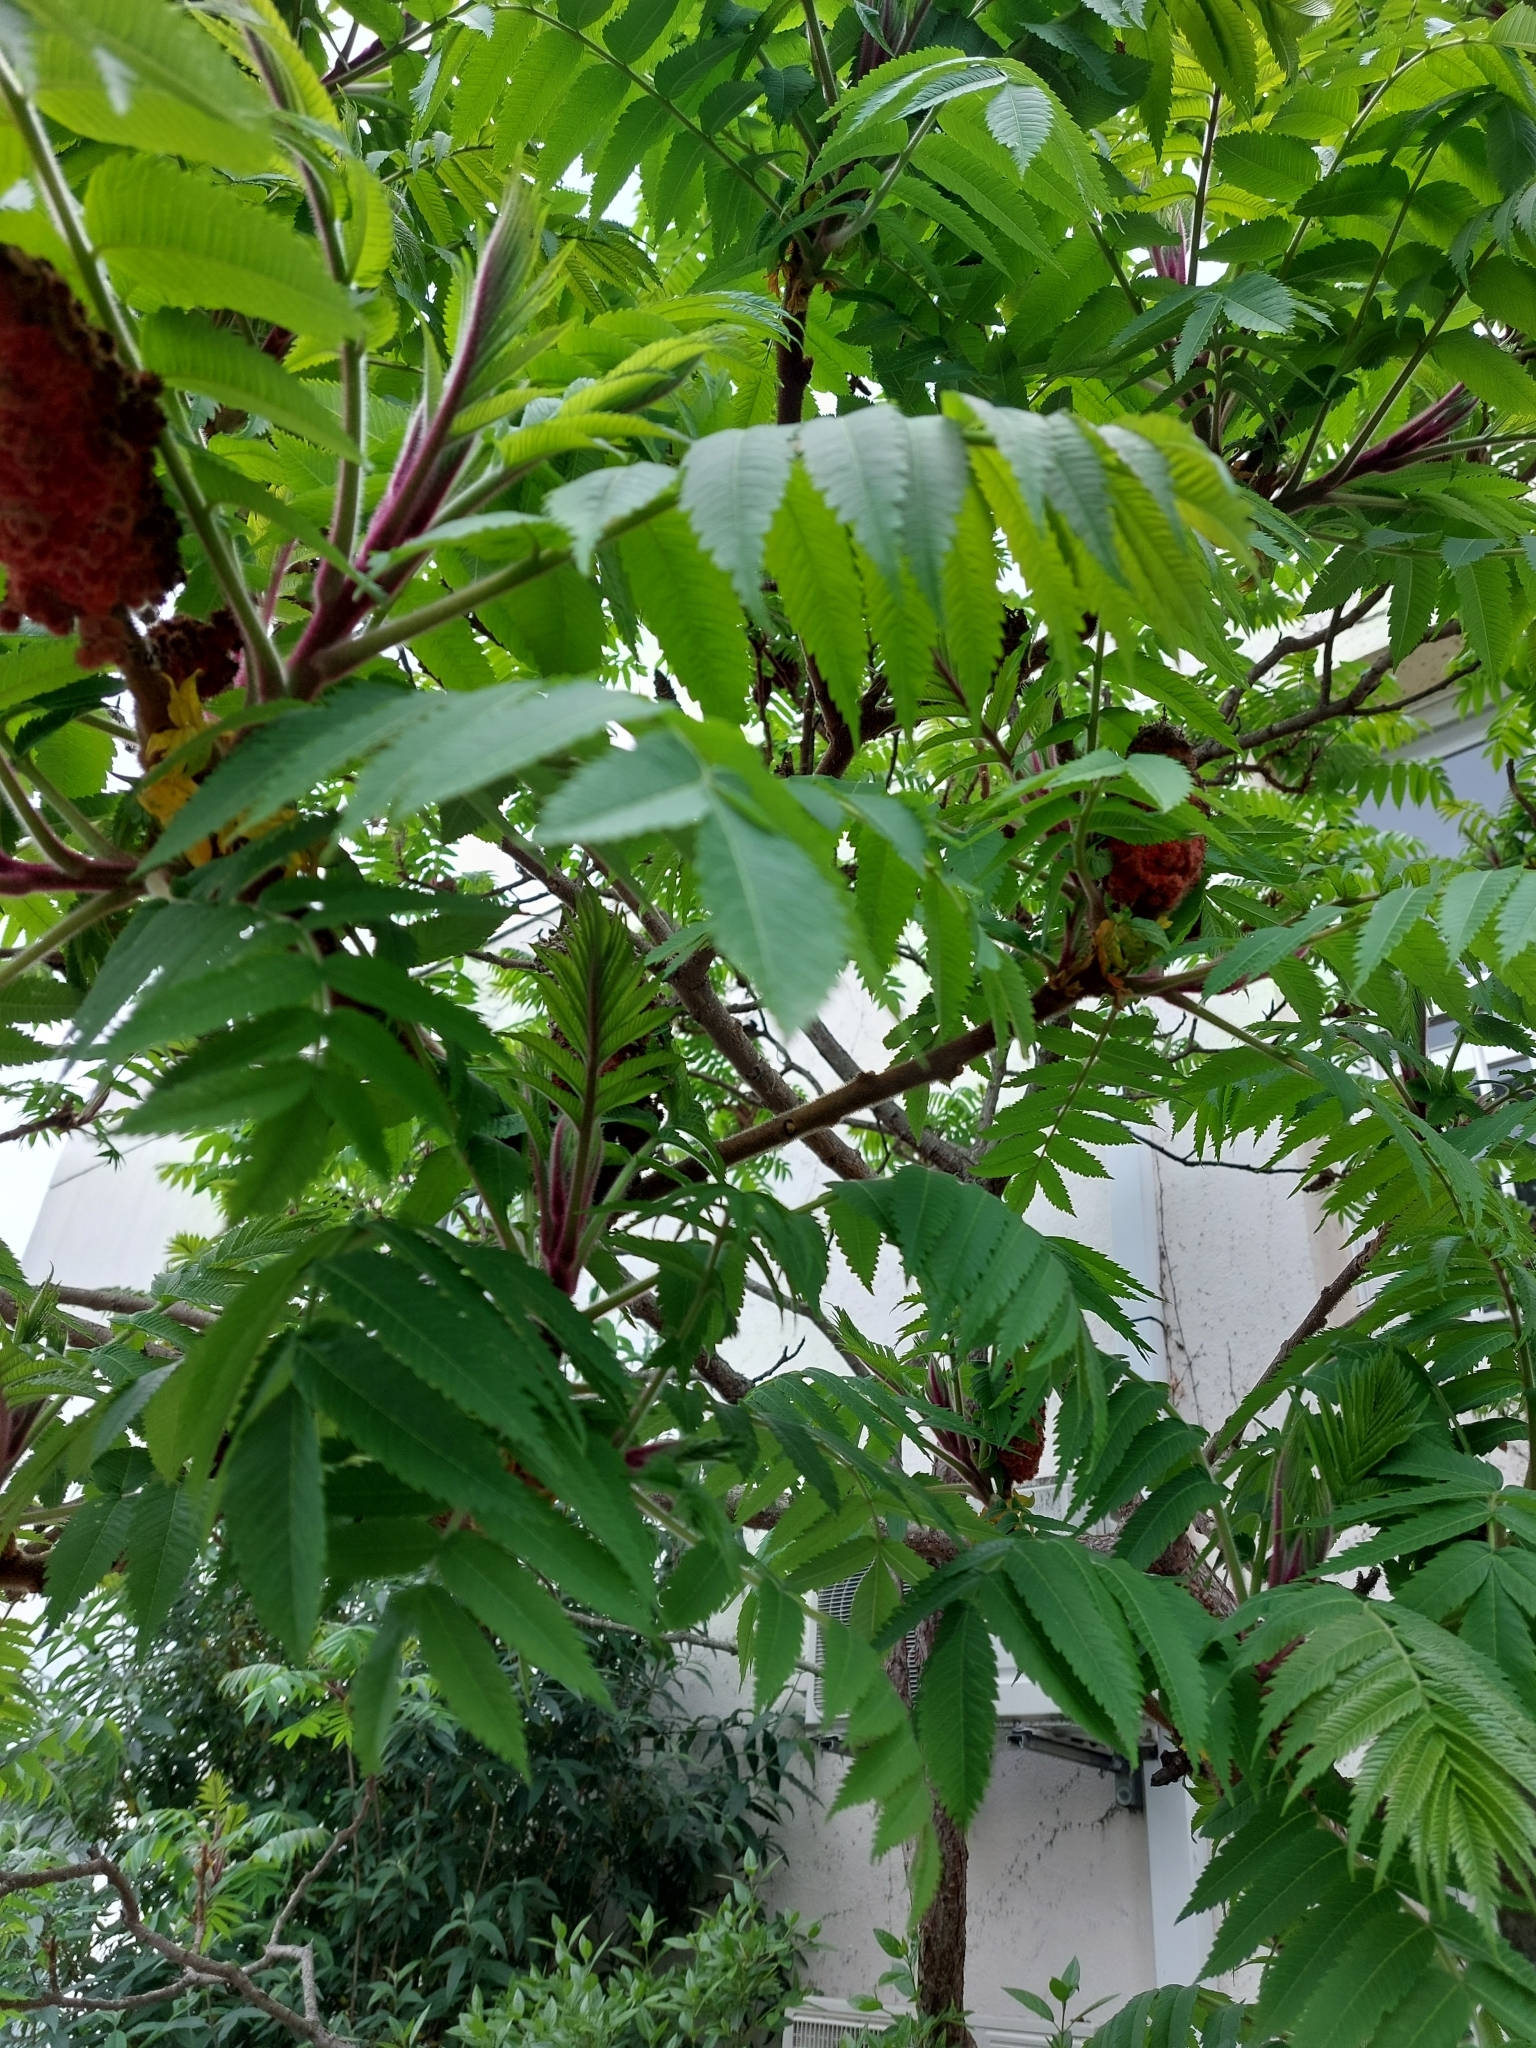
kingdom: Plantae
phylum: Tracheophyta
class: Magnoliopsida
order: Sapindales
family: Anacardiaceae
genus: Rhus
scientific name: Rhus typhina
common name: Staghorn sumac
